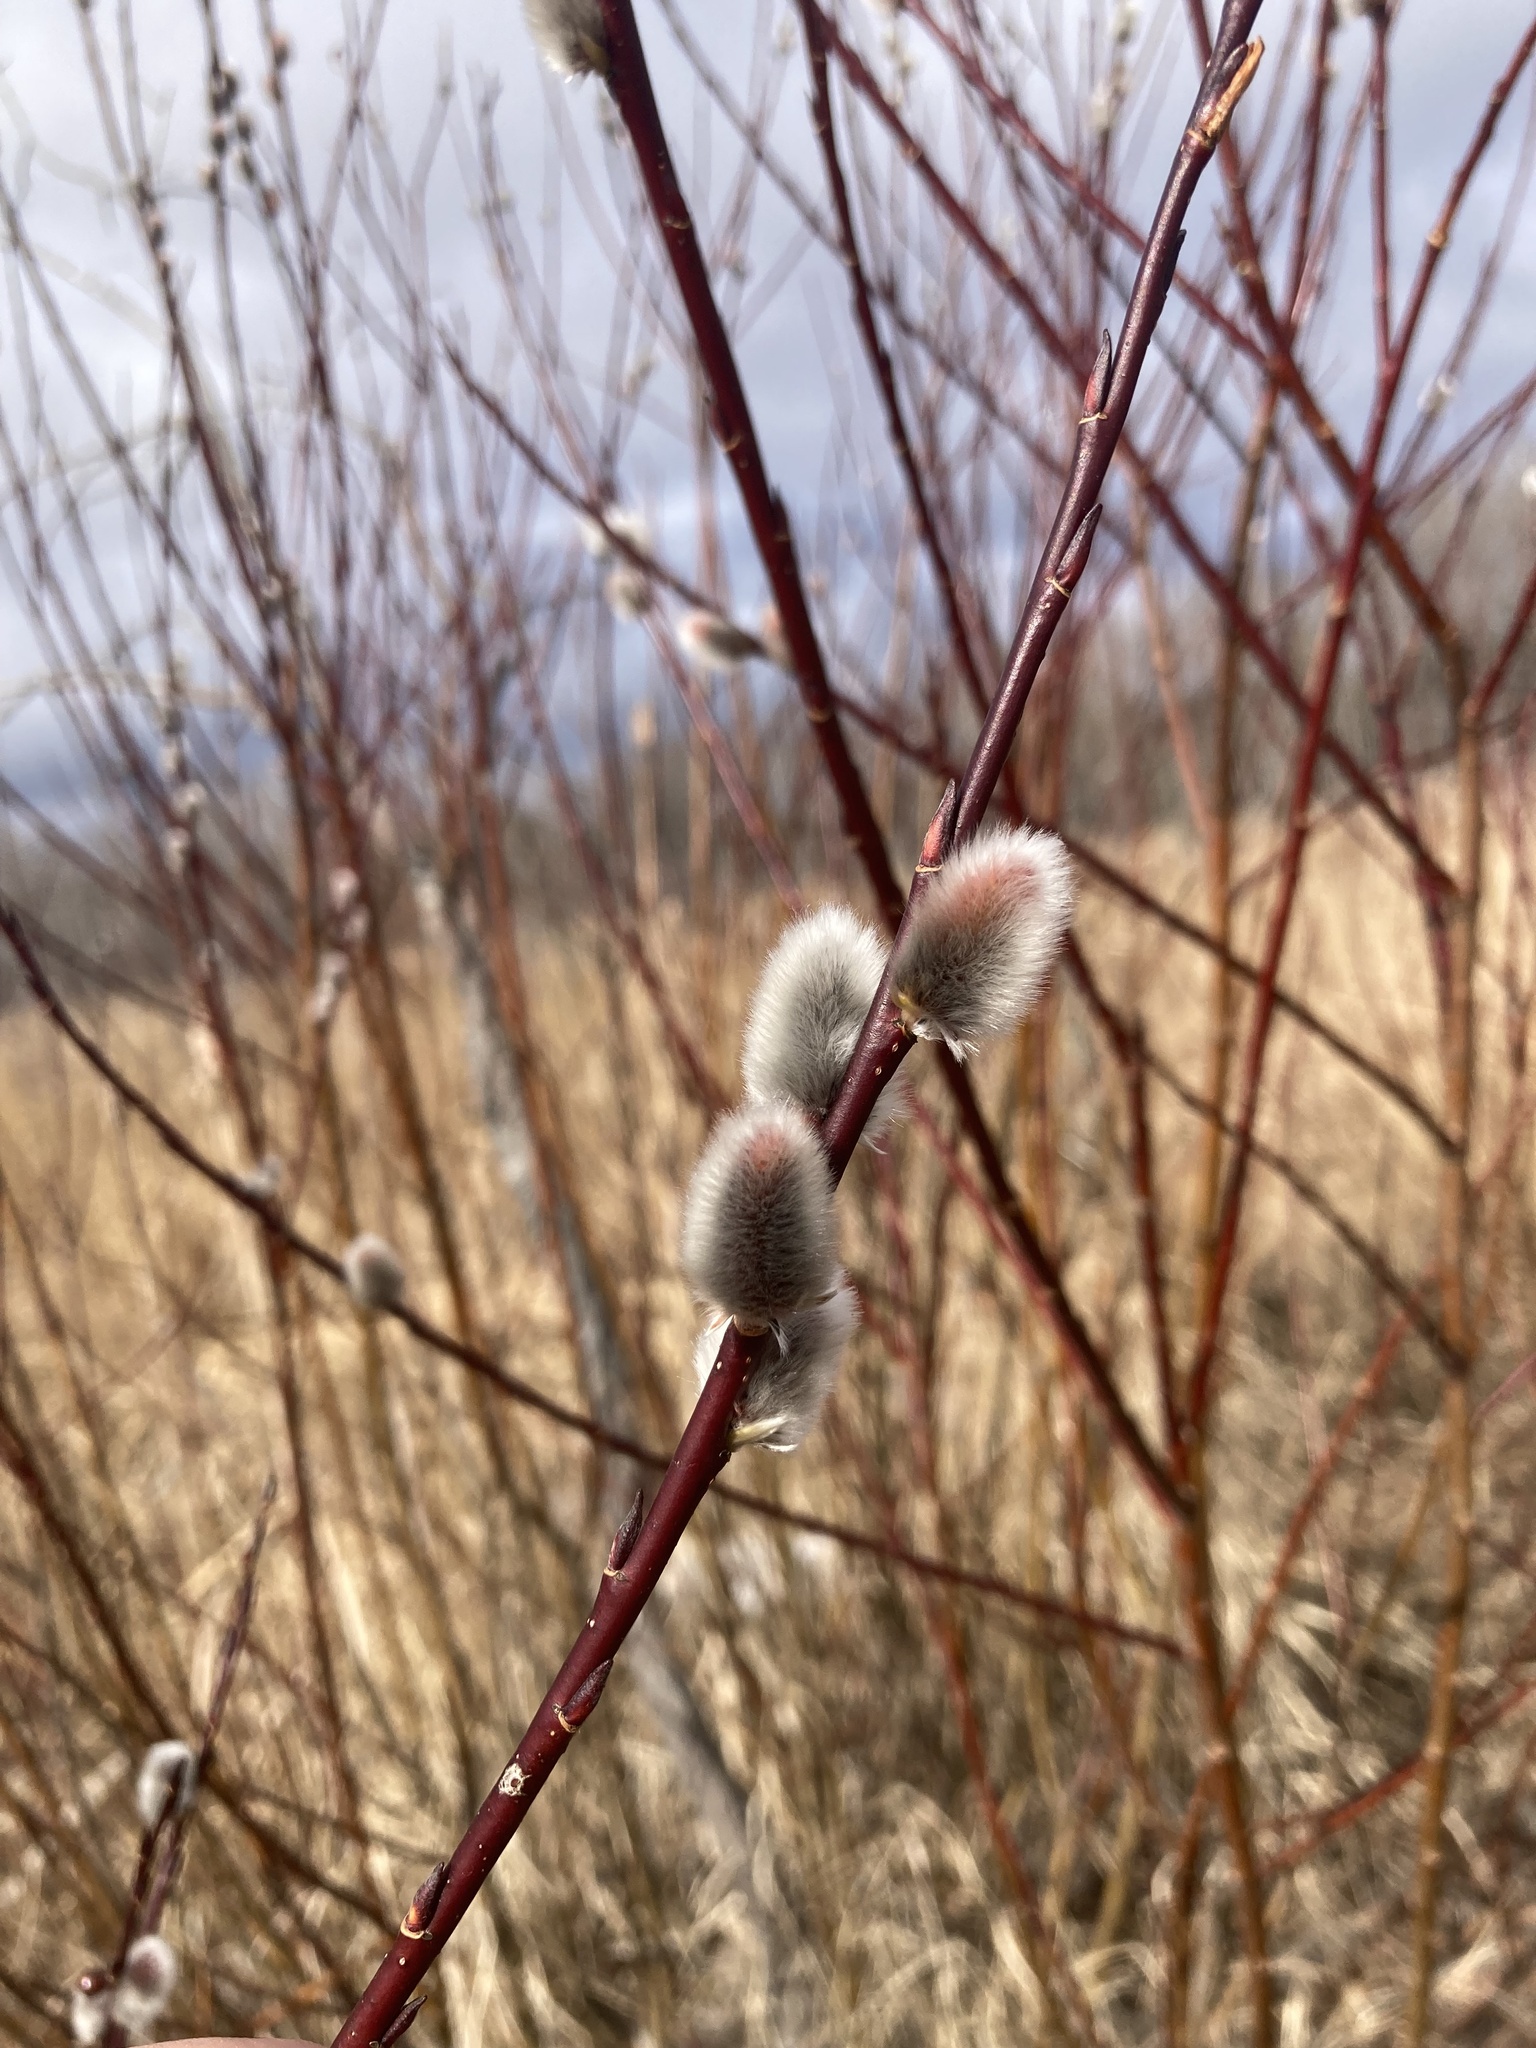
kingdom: Plantae
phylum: Tracheophyta
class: Magnoliopsida
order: Malpighiales
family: Salicaceae
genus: Salix
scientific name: Salix discolor
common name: Glaucous willow
